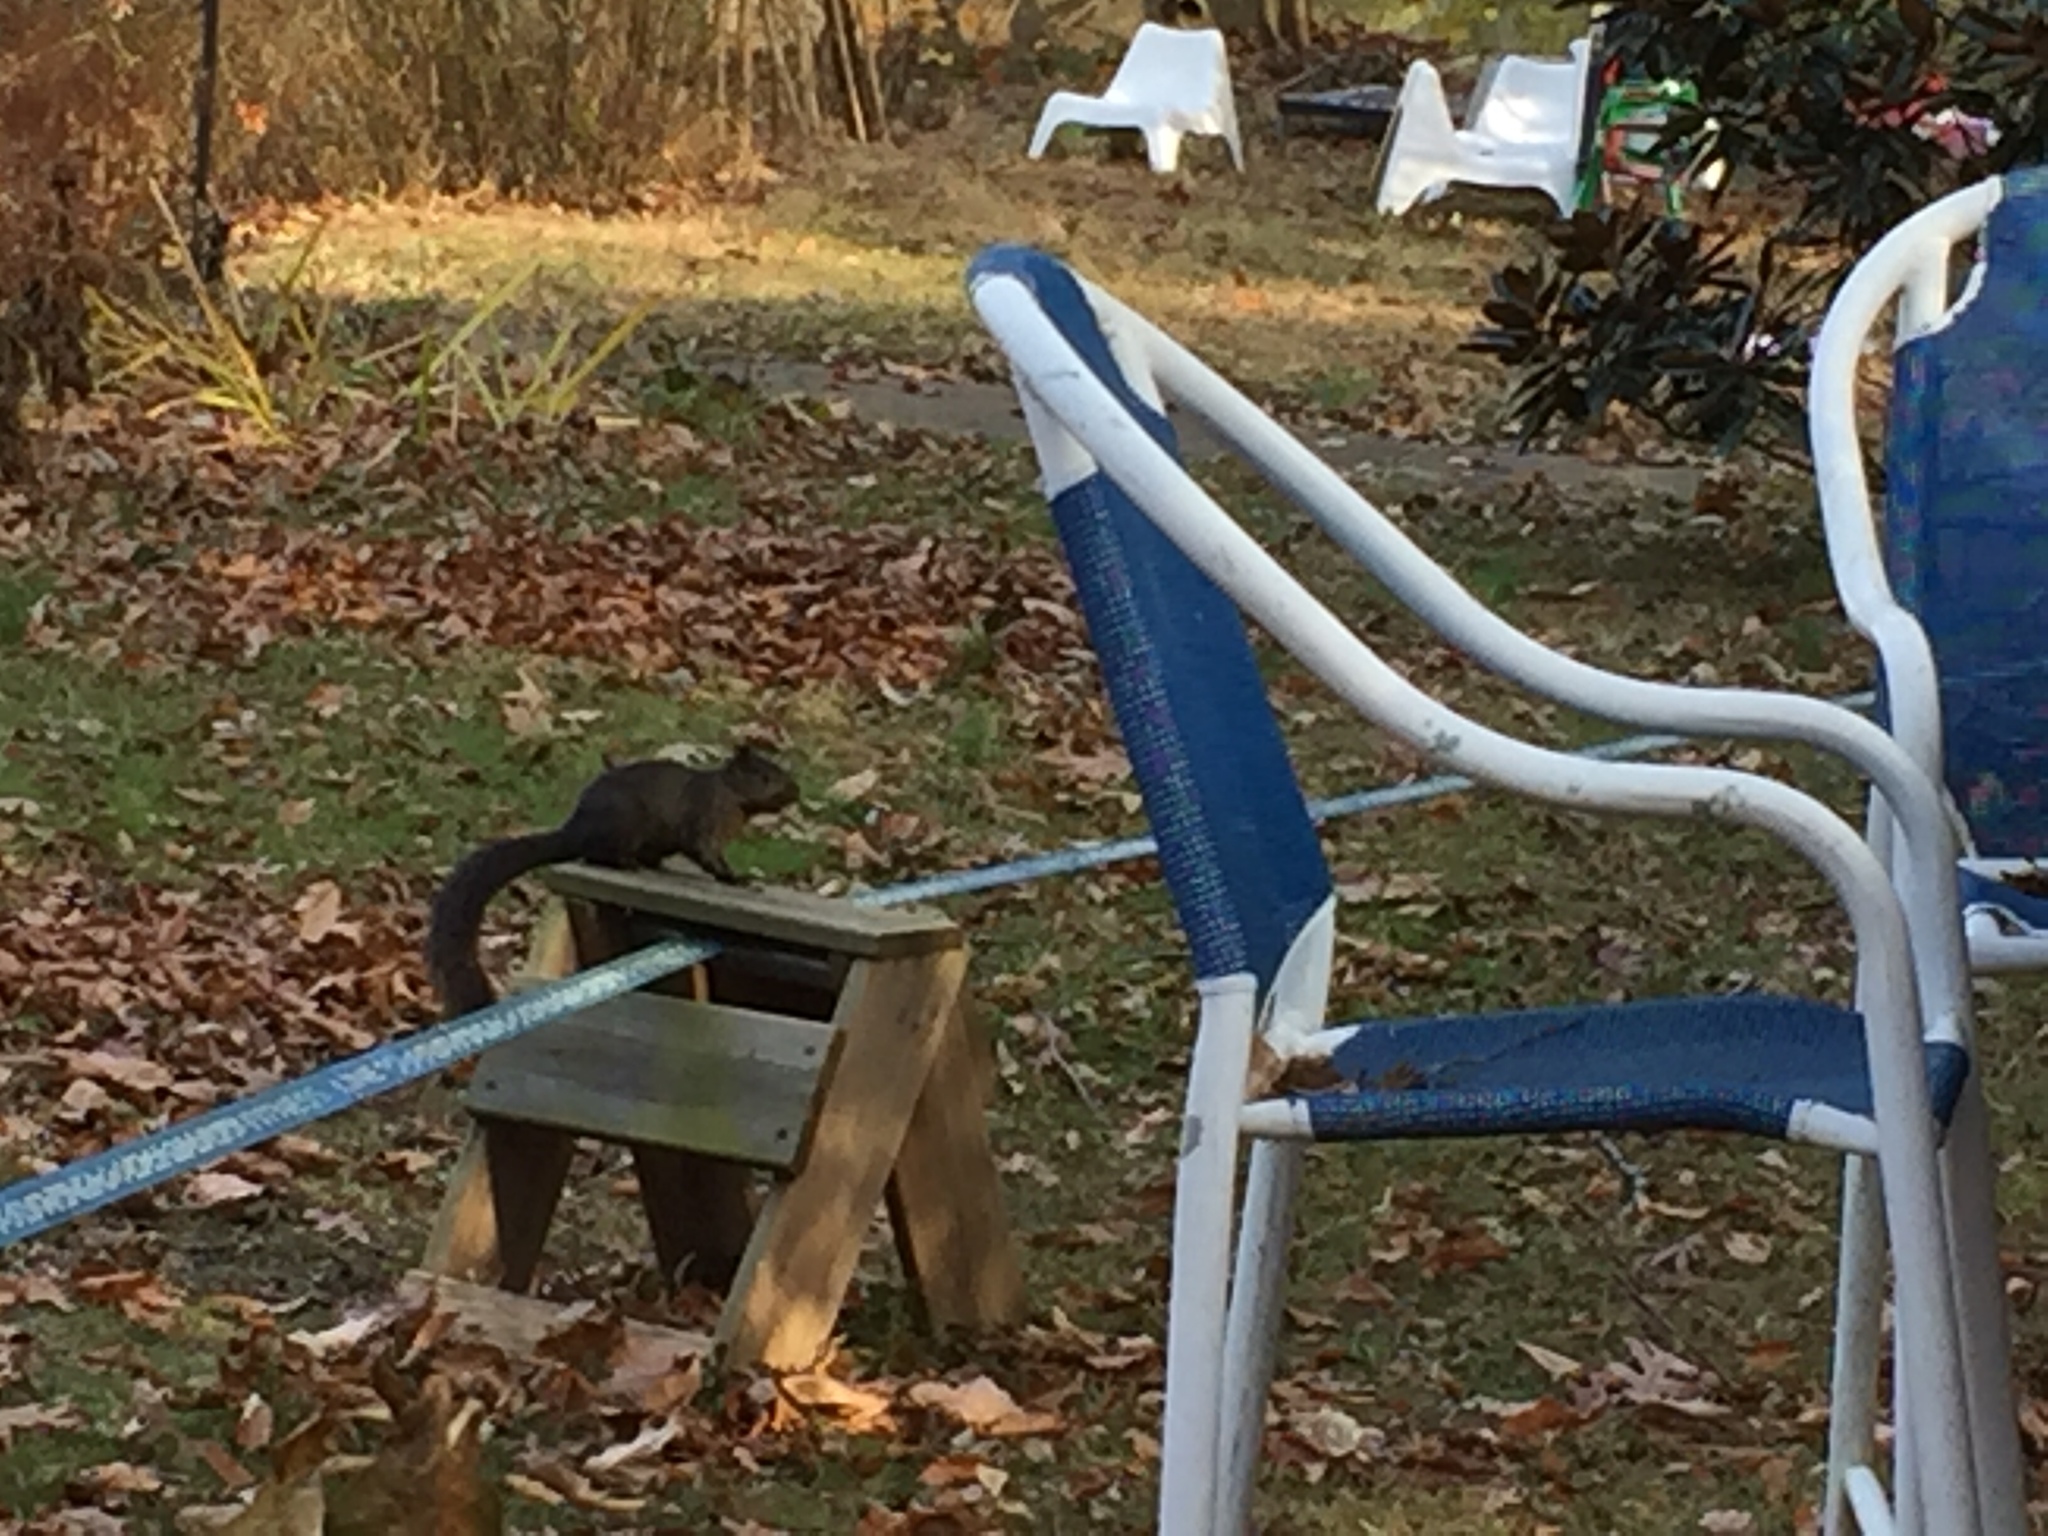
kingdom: Animalia
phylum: Chordata
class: Mammalia
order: Rodentia
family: Sciuridae
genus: Sciurus
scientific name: Sciurus carolinensis
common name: Eastern gray squirrel
